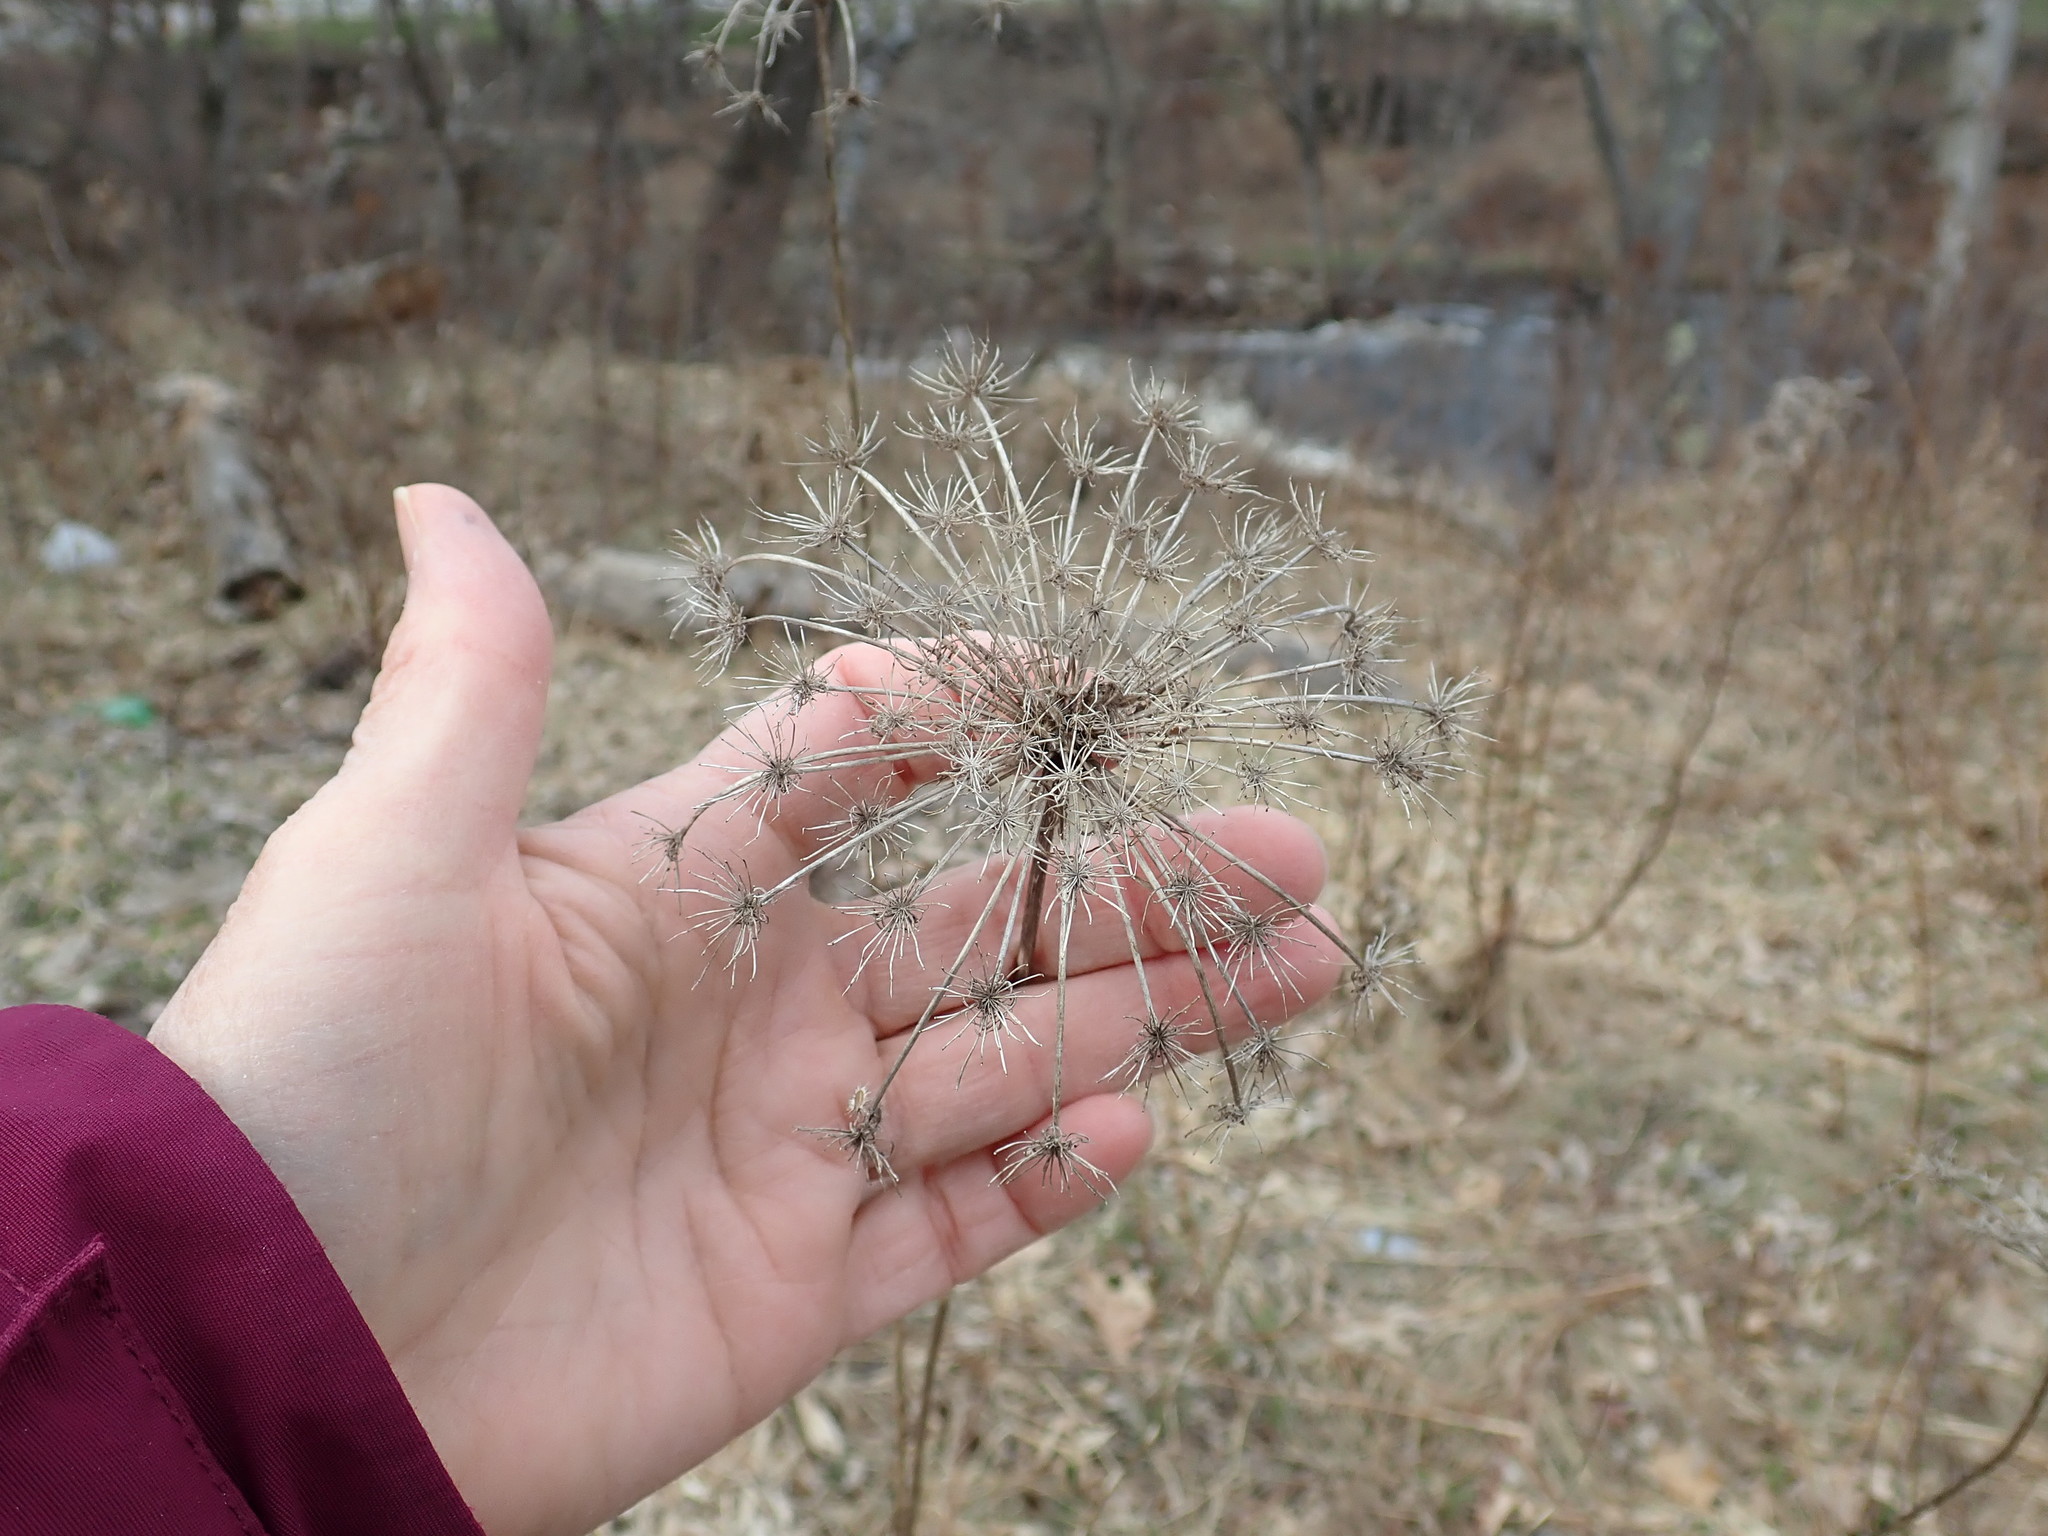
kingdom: Plantae
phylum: Tracheophyta
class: Magnoliopsida
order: Apiales
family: Apiaceae
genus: Daucus
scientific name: Daucus carota
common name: Wild carrot
